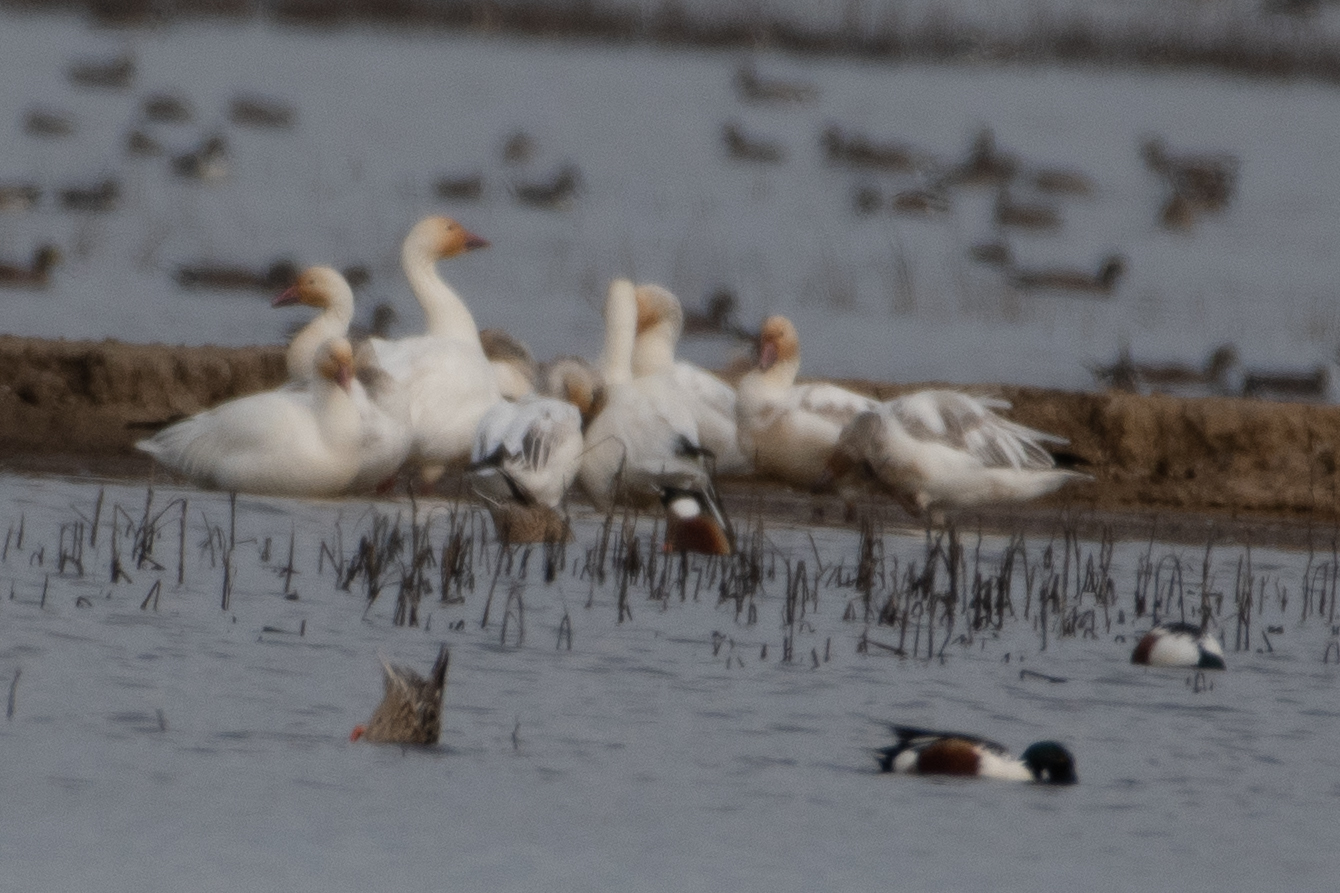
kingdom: Animalia
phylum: Chordata
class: Aves
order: Anseriformes
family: Anatidae
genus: Anser
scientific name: Anser caerulescens
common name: Snow goose
